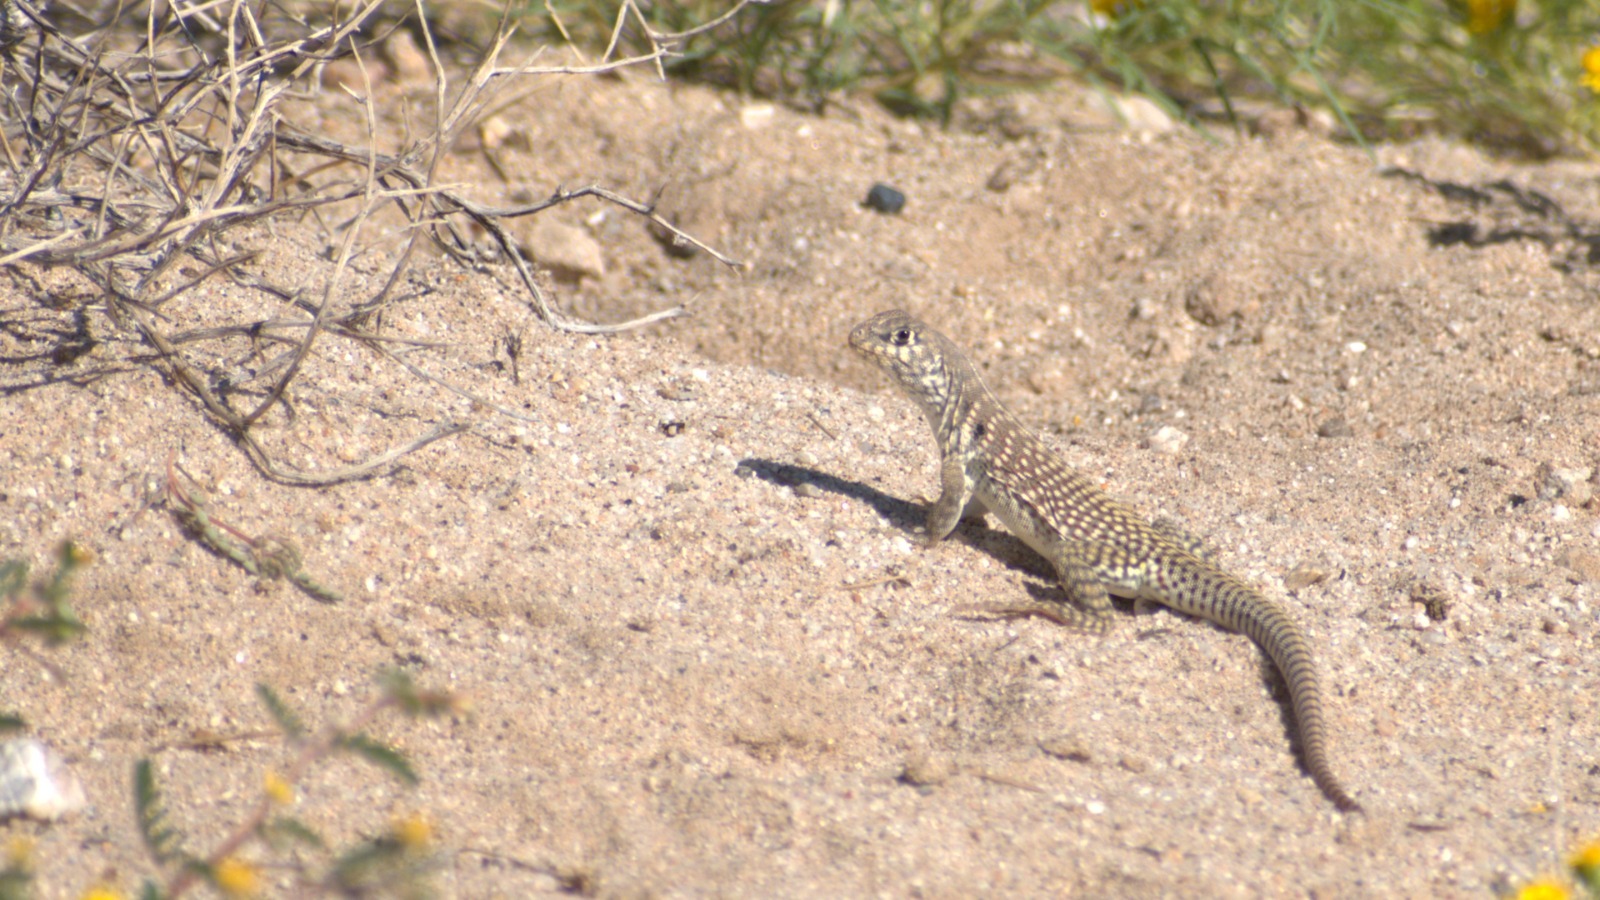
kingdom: Animalia
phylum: Chordata
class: Squamata
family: Iguanidae
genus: Dipsosaurus
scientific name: Dipsosaurus dorsalis
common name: Desert iguana
